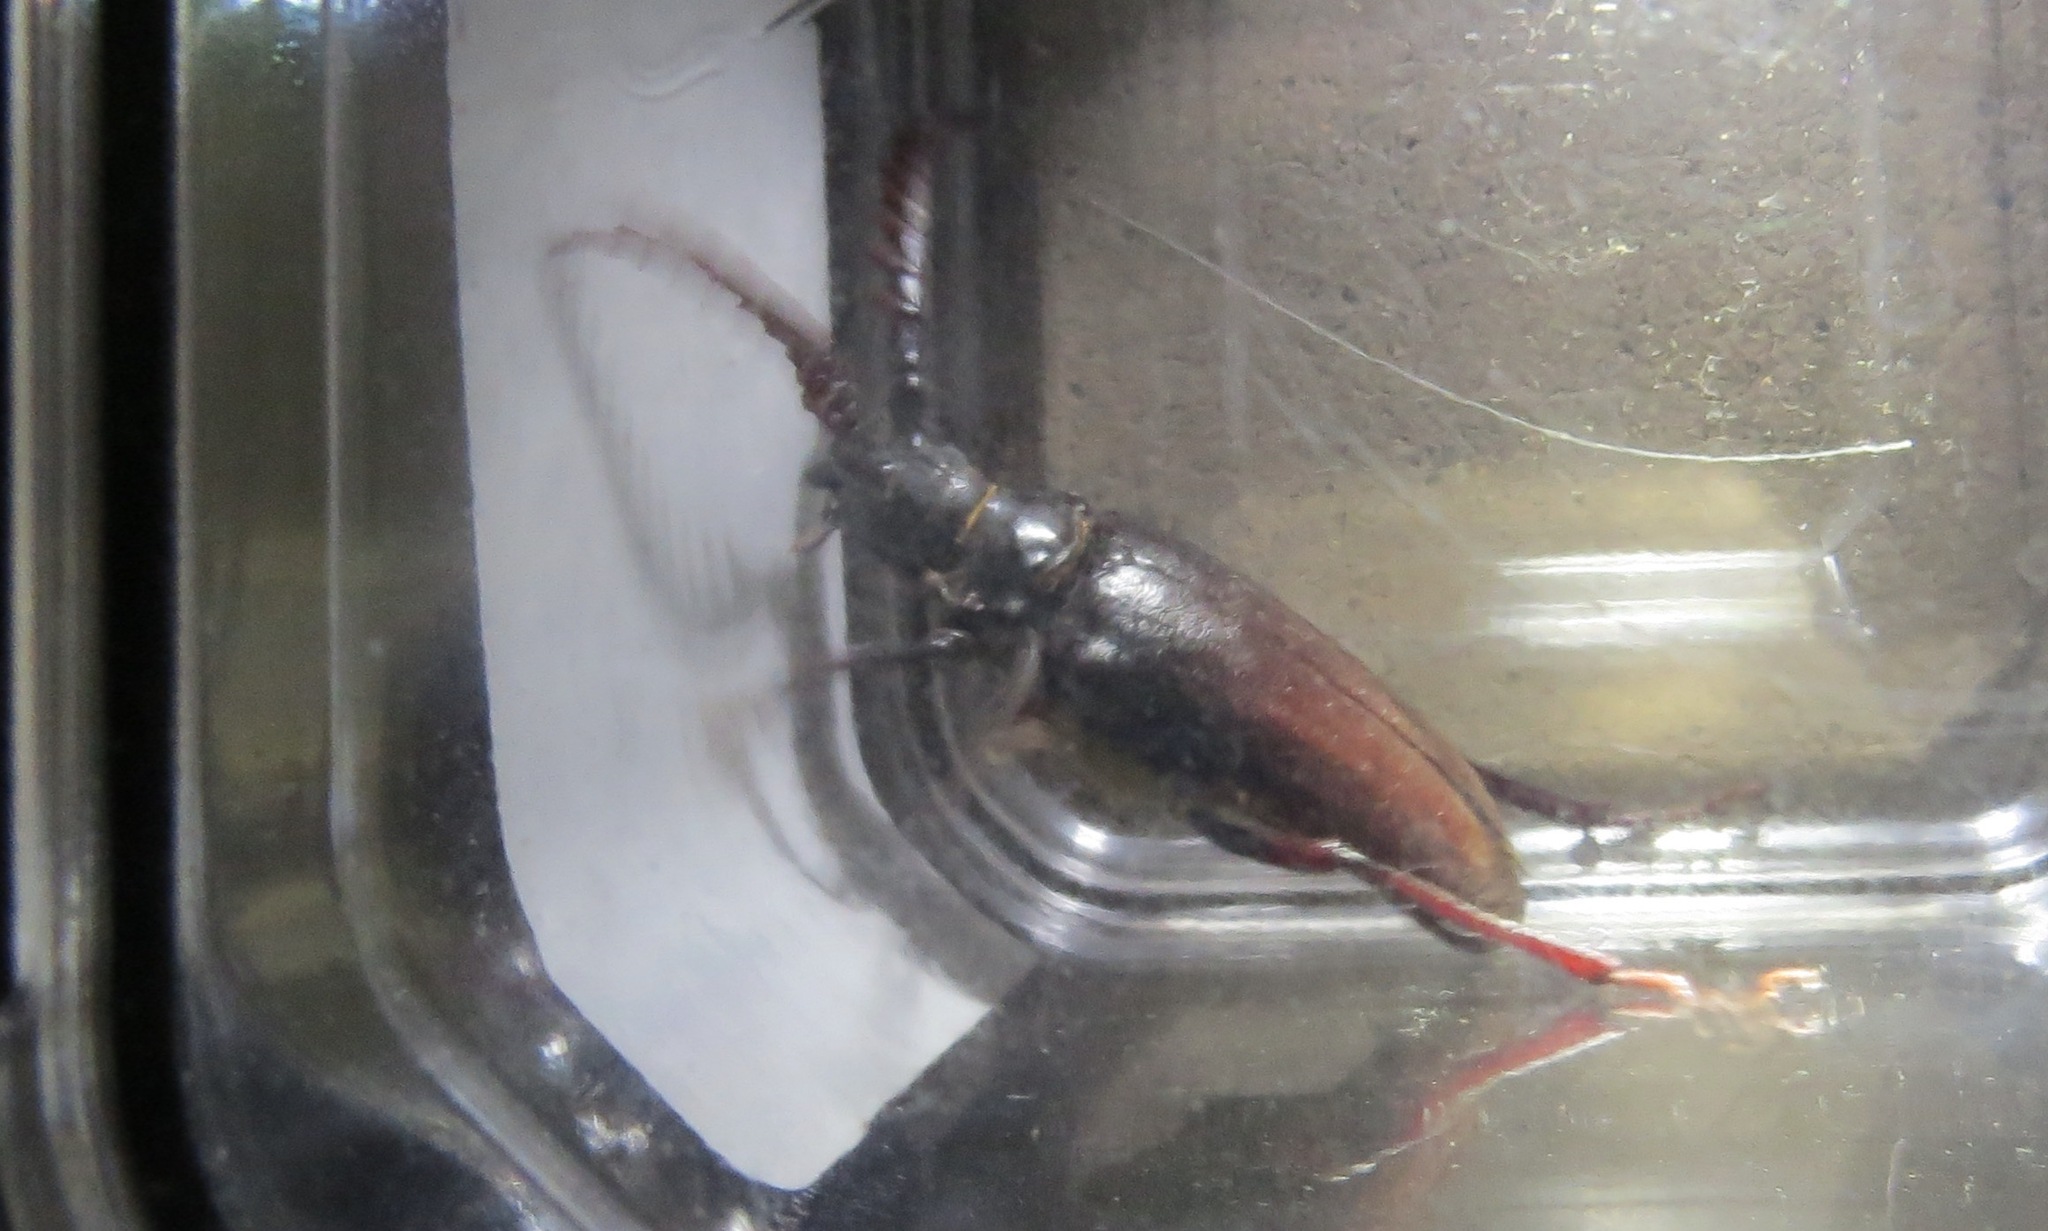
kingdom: Animalia
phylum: Arthropoda
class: Insecta
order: Coleoptera
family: Cerambycidae
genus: Prionus
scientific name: Prionus californicus
